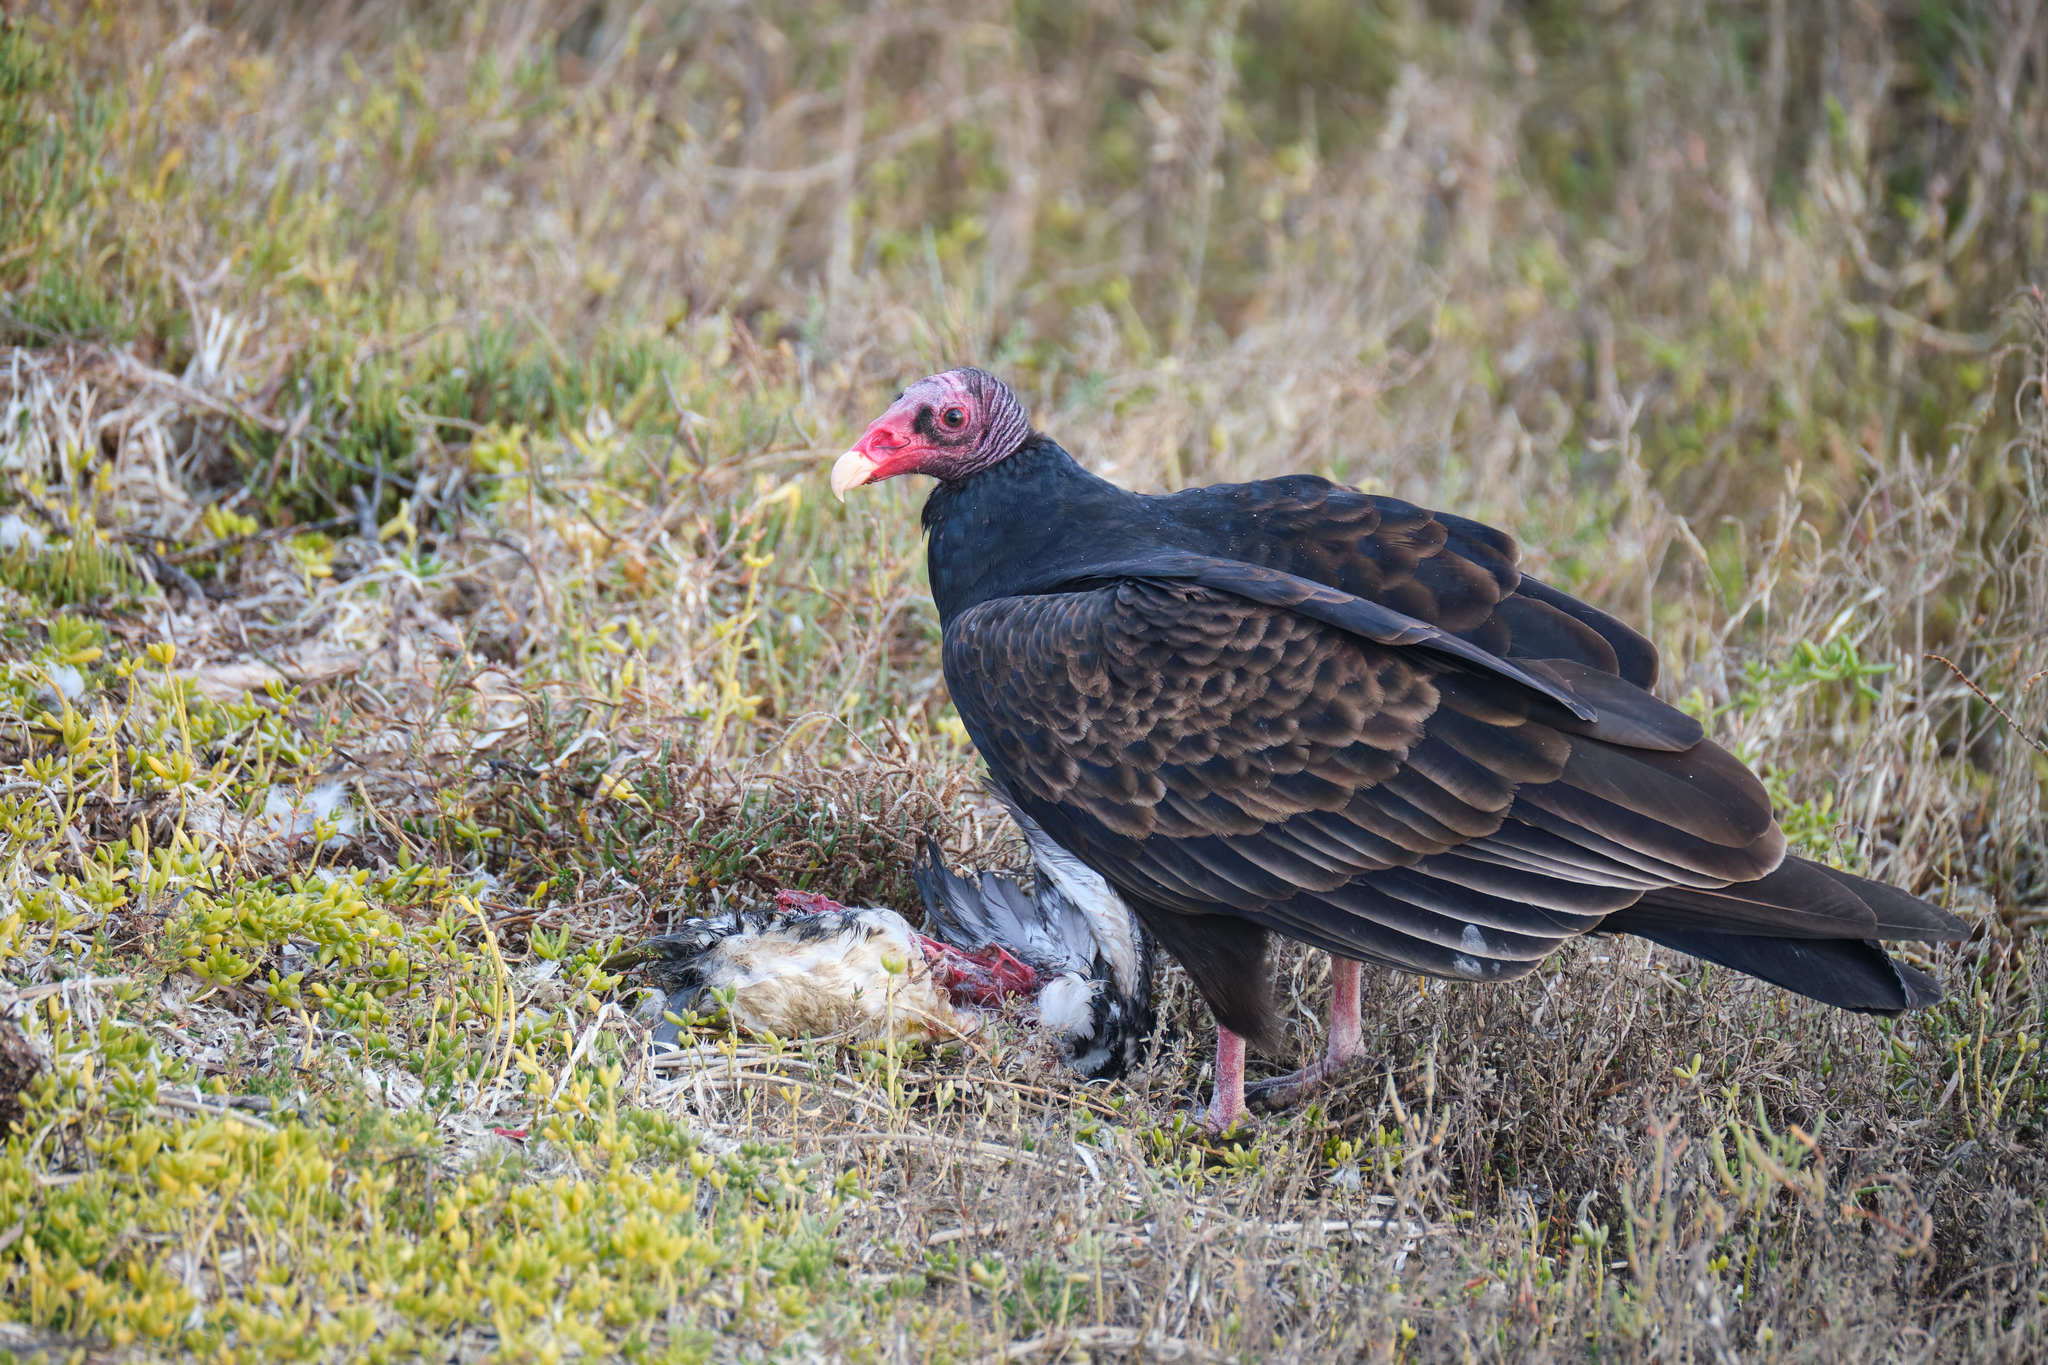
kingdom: Animalia
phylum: Chordata
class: Aves
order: Accipitriformes
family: Cathartidae
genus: Cathartes
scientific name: Cathartes aura
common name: Turkey vulture
